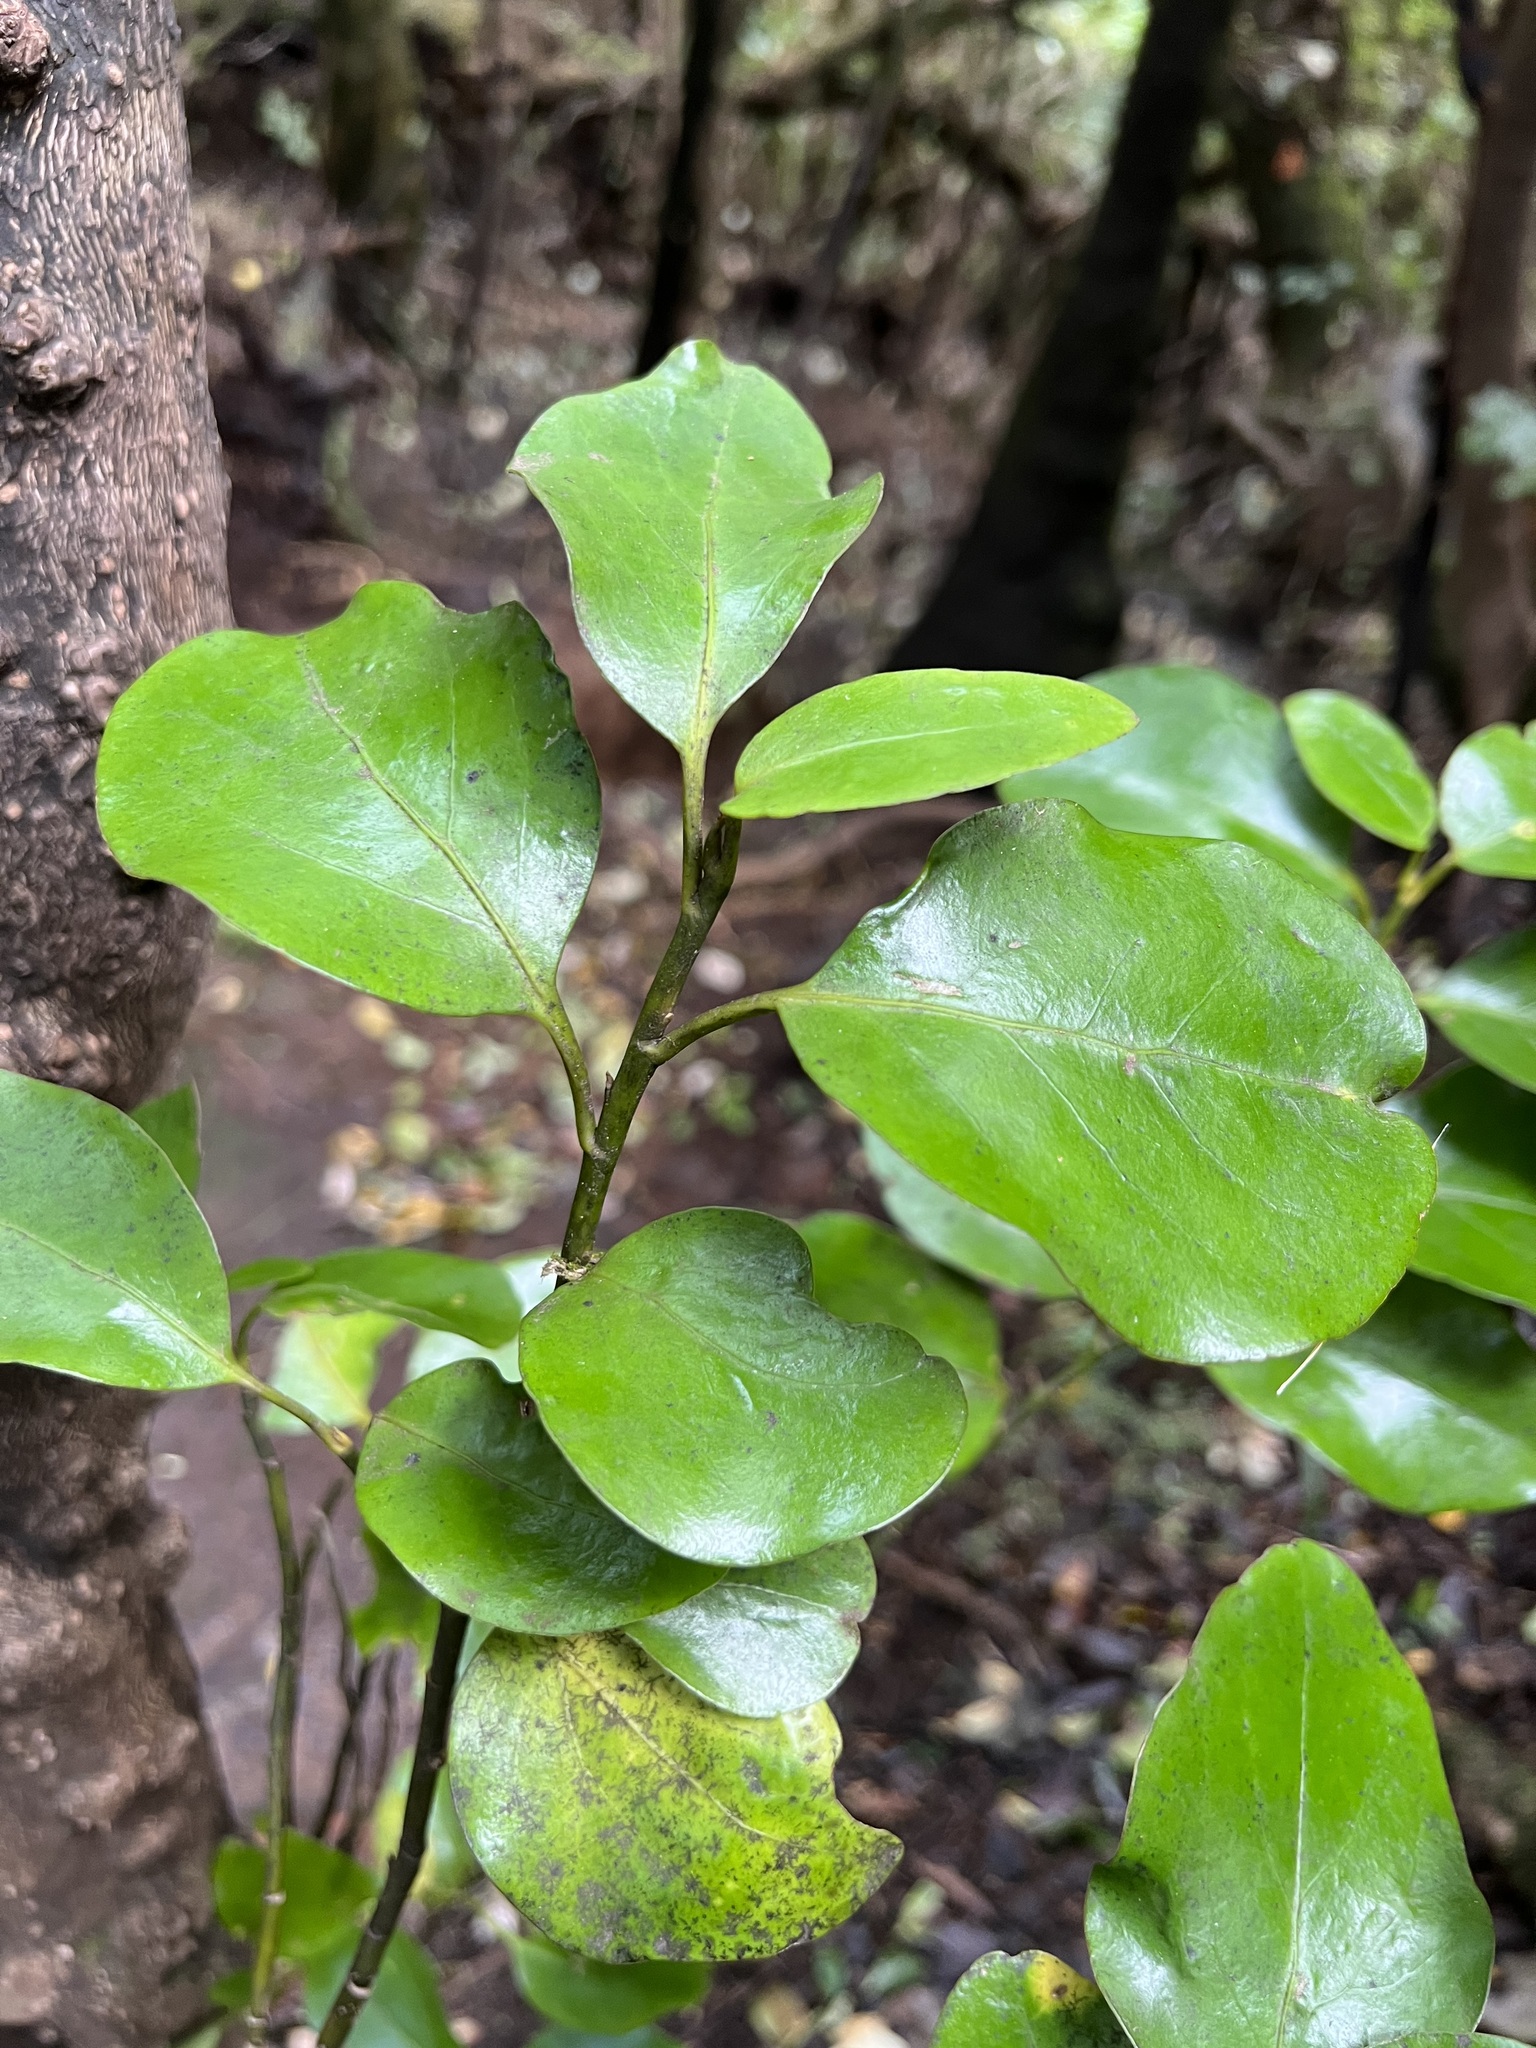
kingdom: Plantae
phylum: Tracheophyta
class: Magnoliopsida
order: Apiales
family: Griseliniaceae
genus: Griselinia
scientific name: Griselinia littoralis
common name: New zealand broadleaf
